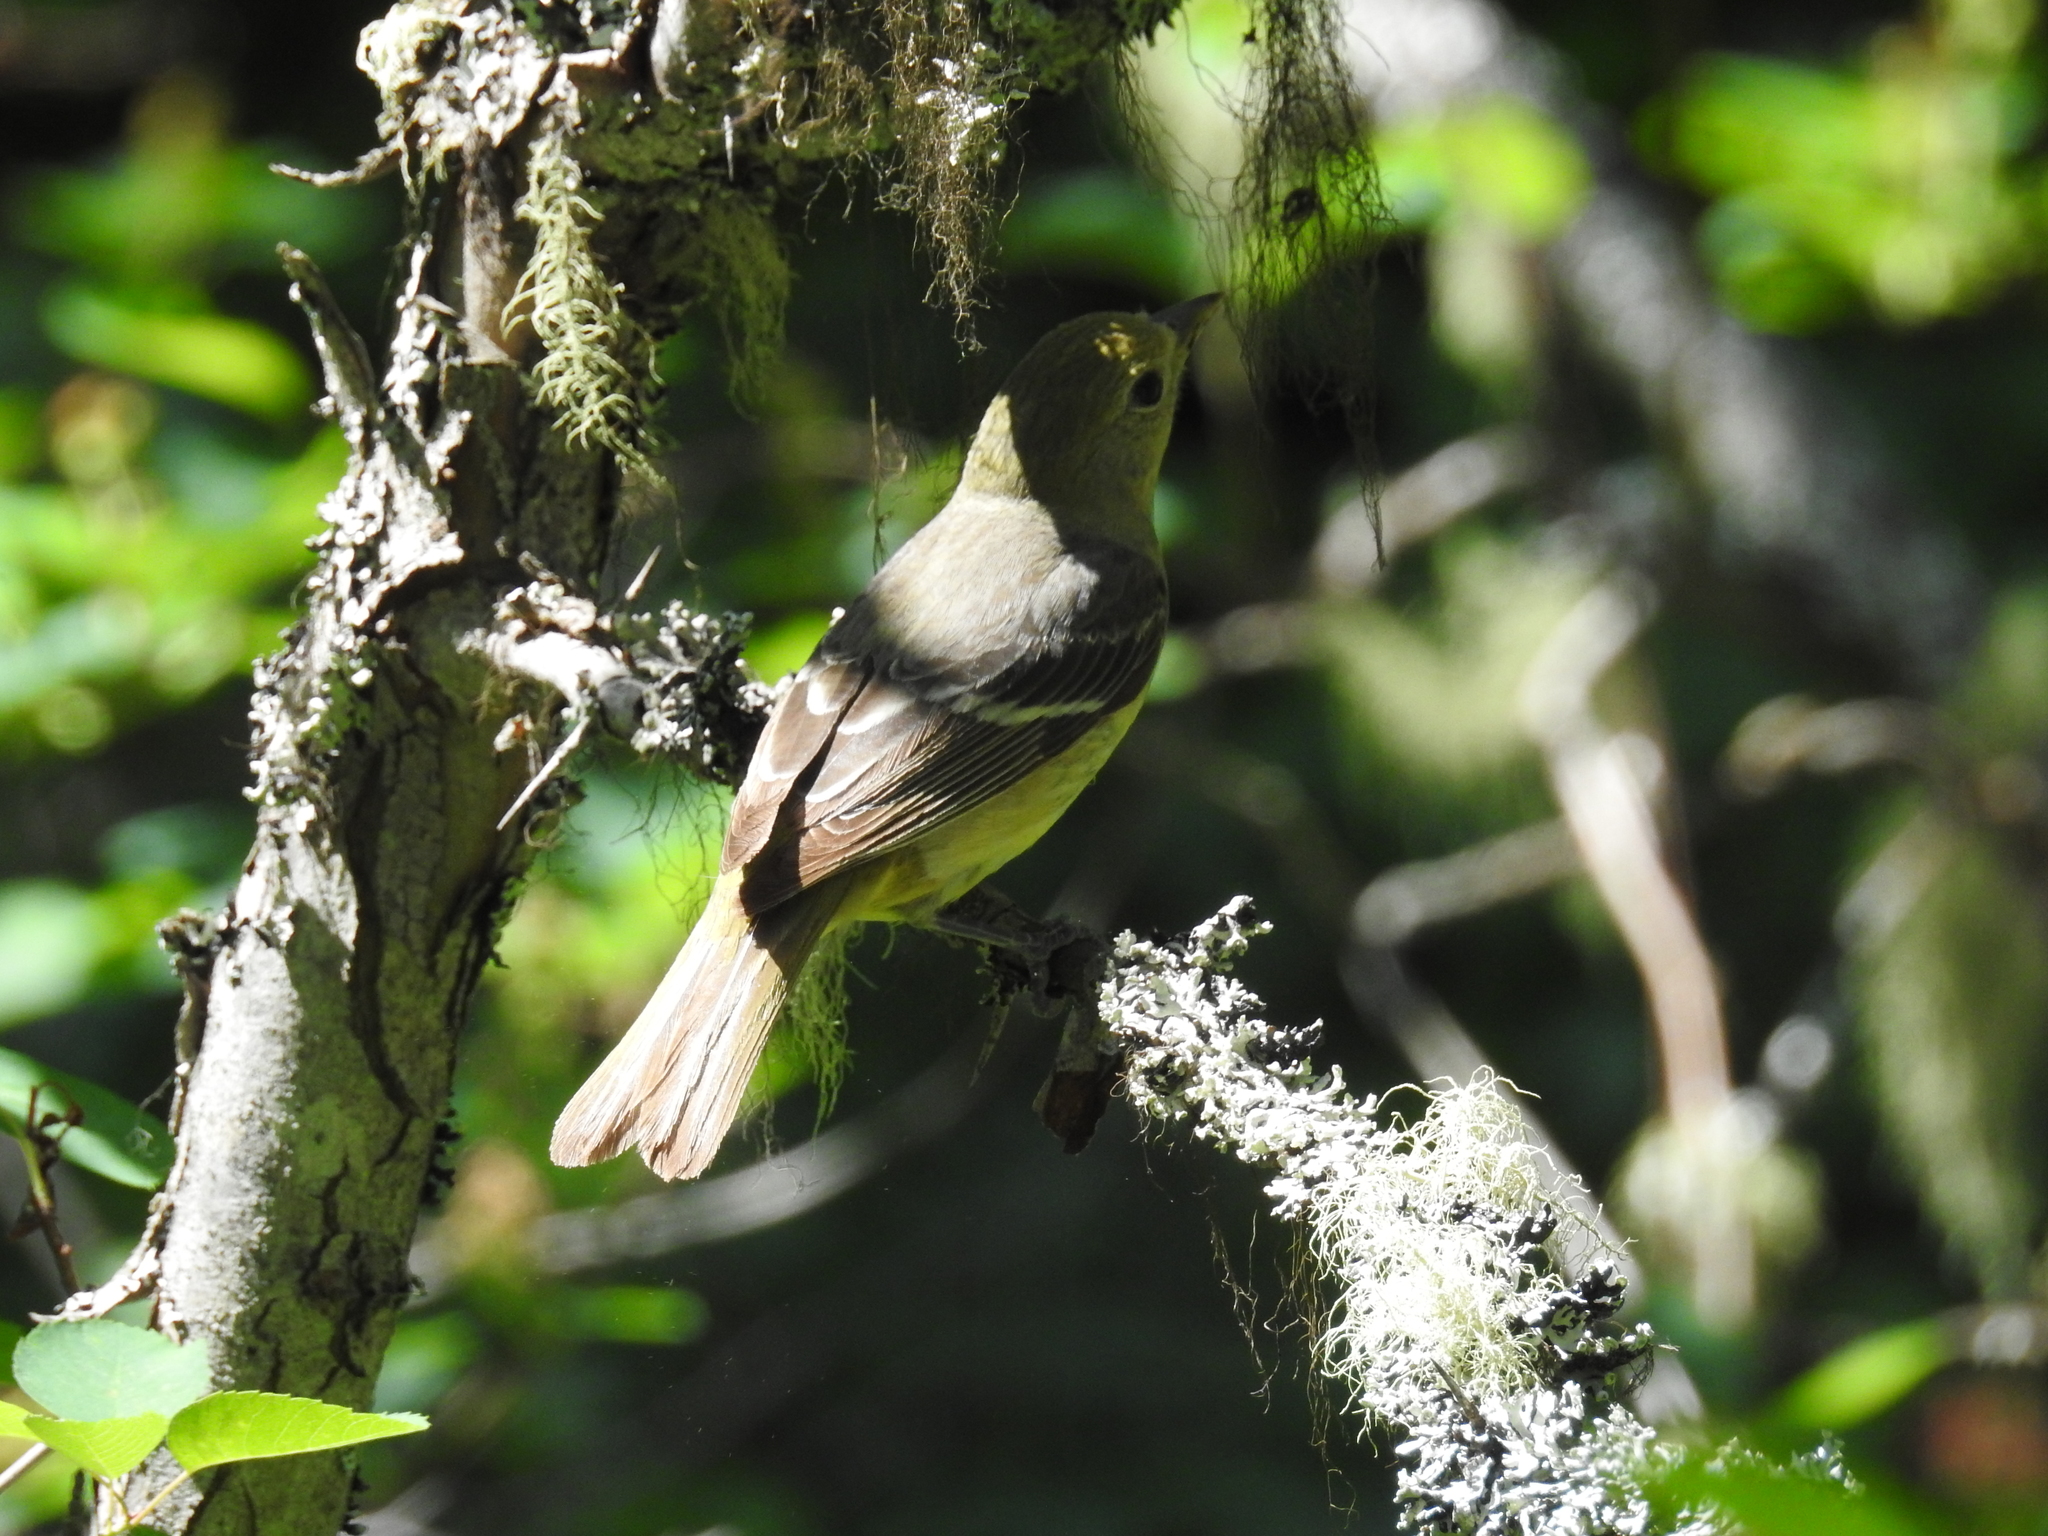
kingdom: Animalia
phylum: Chordata
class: Aves
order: Passeriformes
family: Cardinalidae
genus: Piranga
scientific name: Piranga ludoviciana
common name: Western tanager
